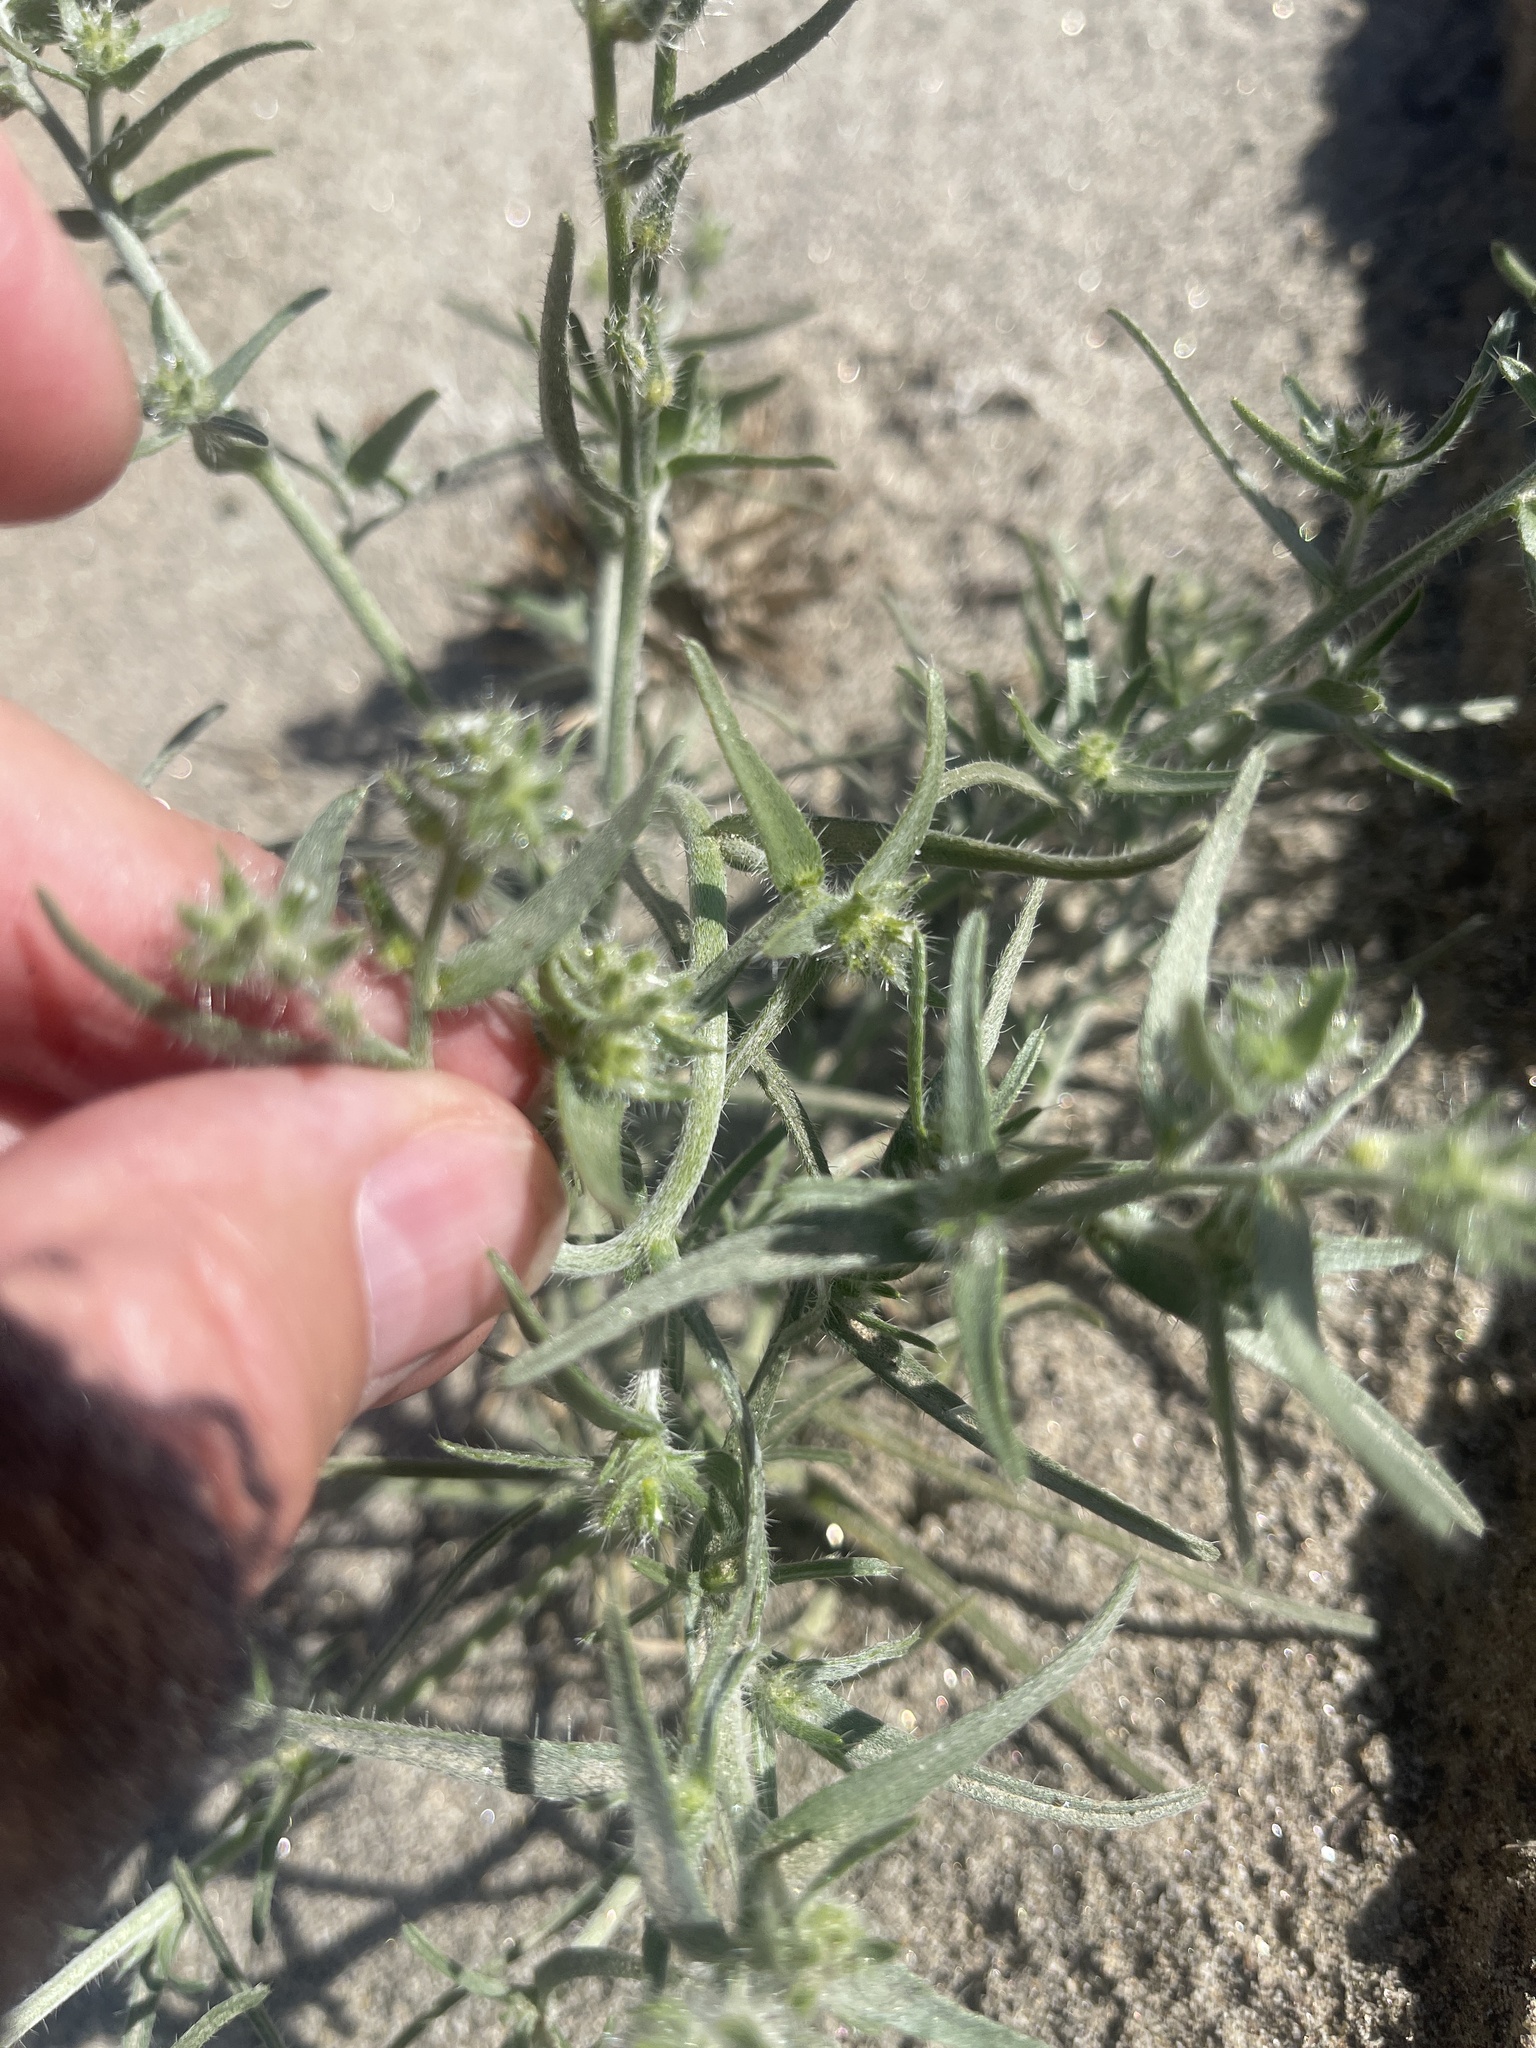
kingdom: Plantae
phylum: Tracheophyta
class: Magnoliopsida
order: Boraginales
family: Boraginaceae
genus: Johnstonella
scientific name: Johnstonella costata
